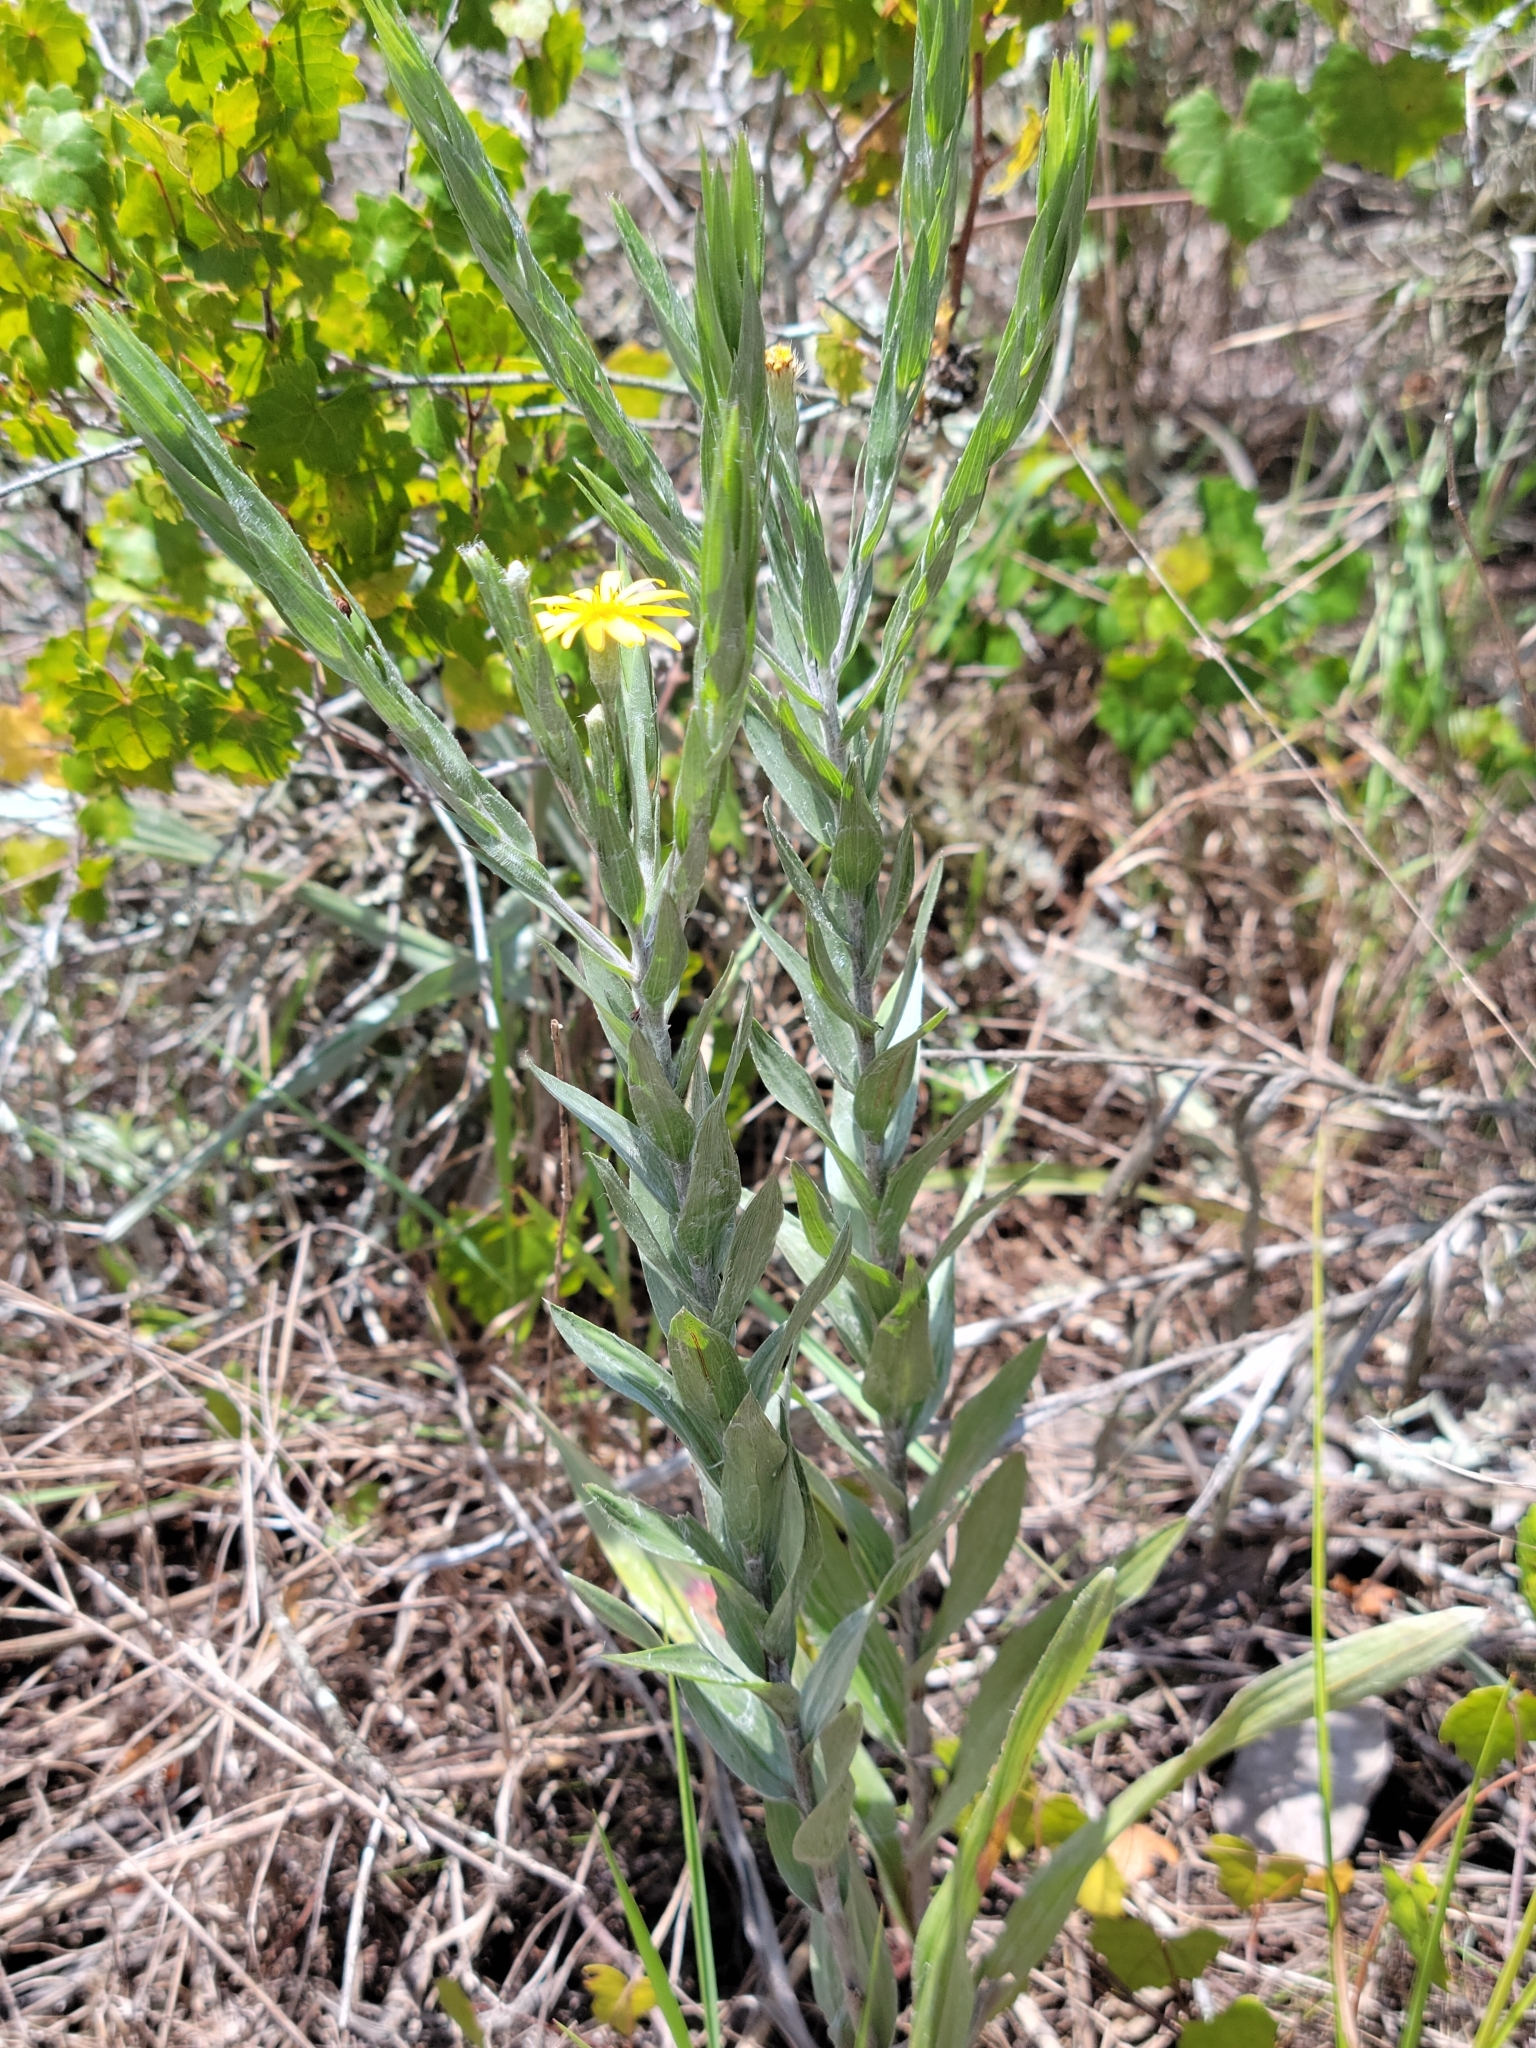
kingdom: Plantae
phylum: Tracheophyta
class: Magnoliopsida
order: Asterales
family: Asteraceae
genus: Pityopsis
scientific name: Pityopsis aequilifolia
